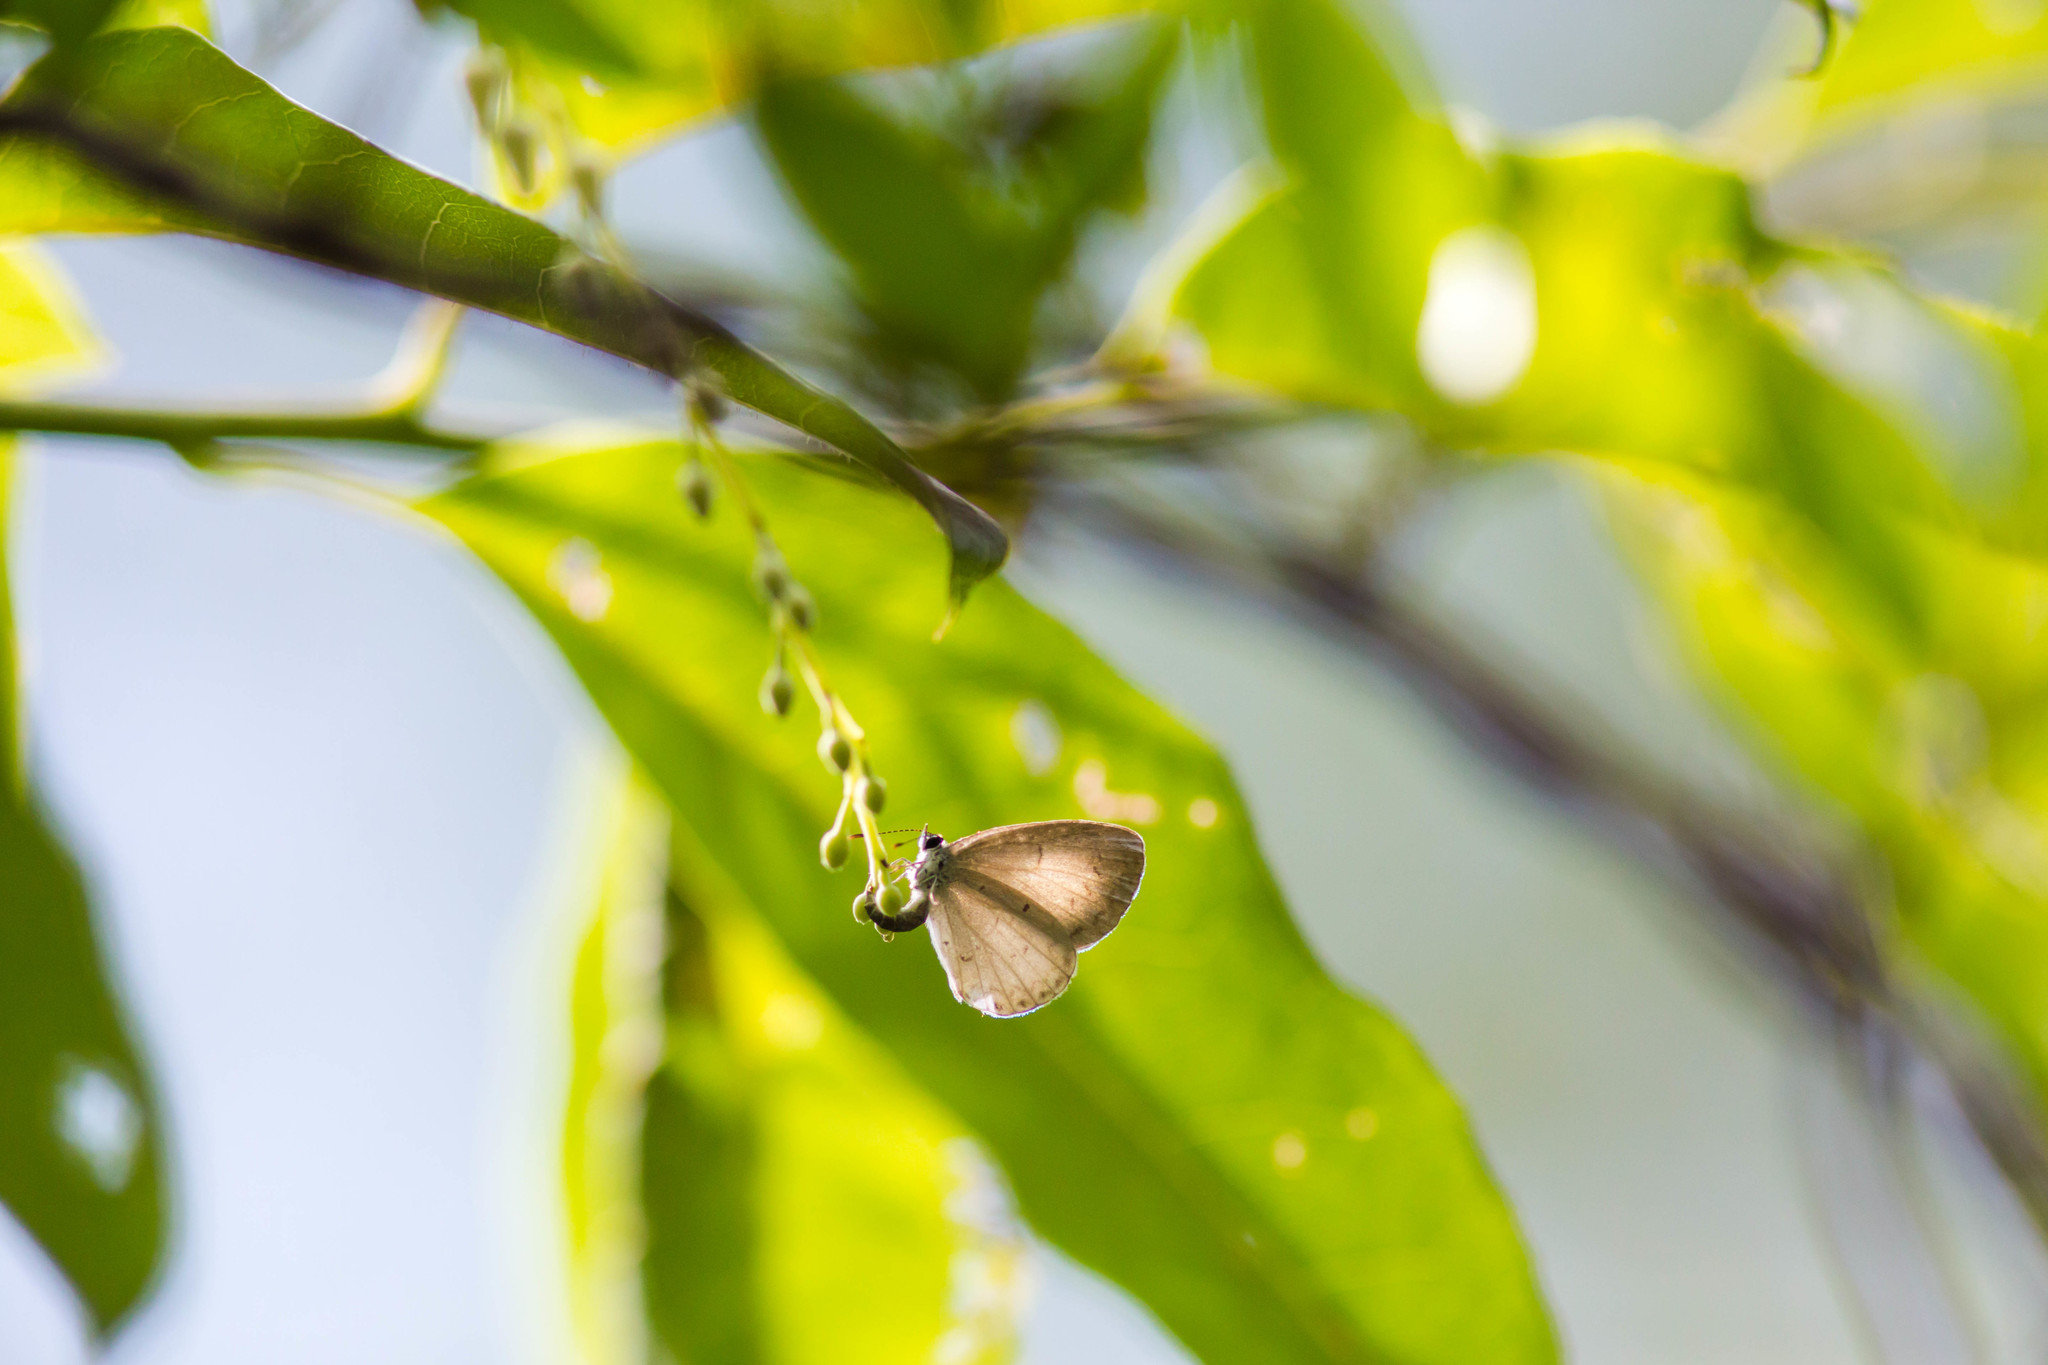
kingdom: Animalia
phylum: Arthropoda
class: Insecta
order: Lepidoptera
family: Lycaenidae
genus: Cyaniris
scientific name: Cyaniris neglecta
